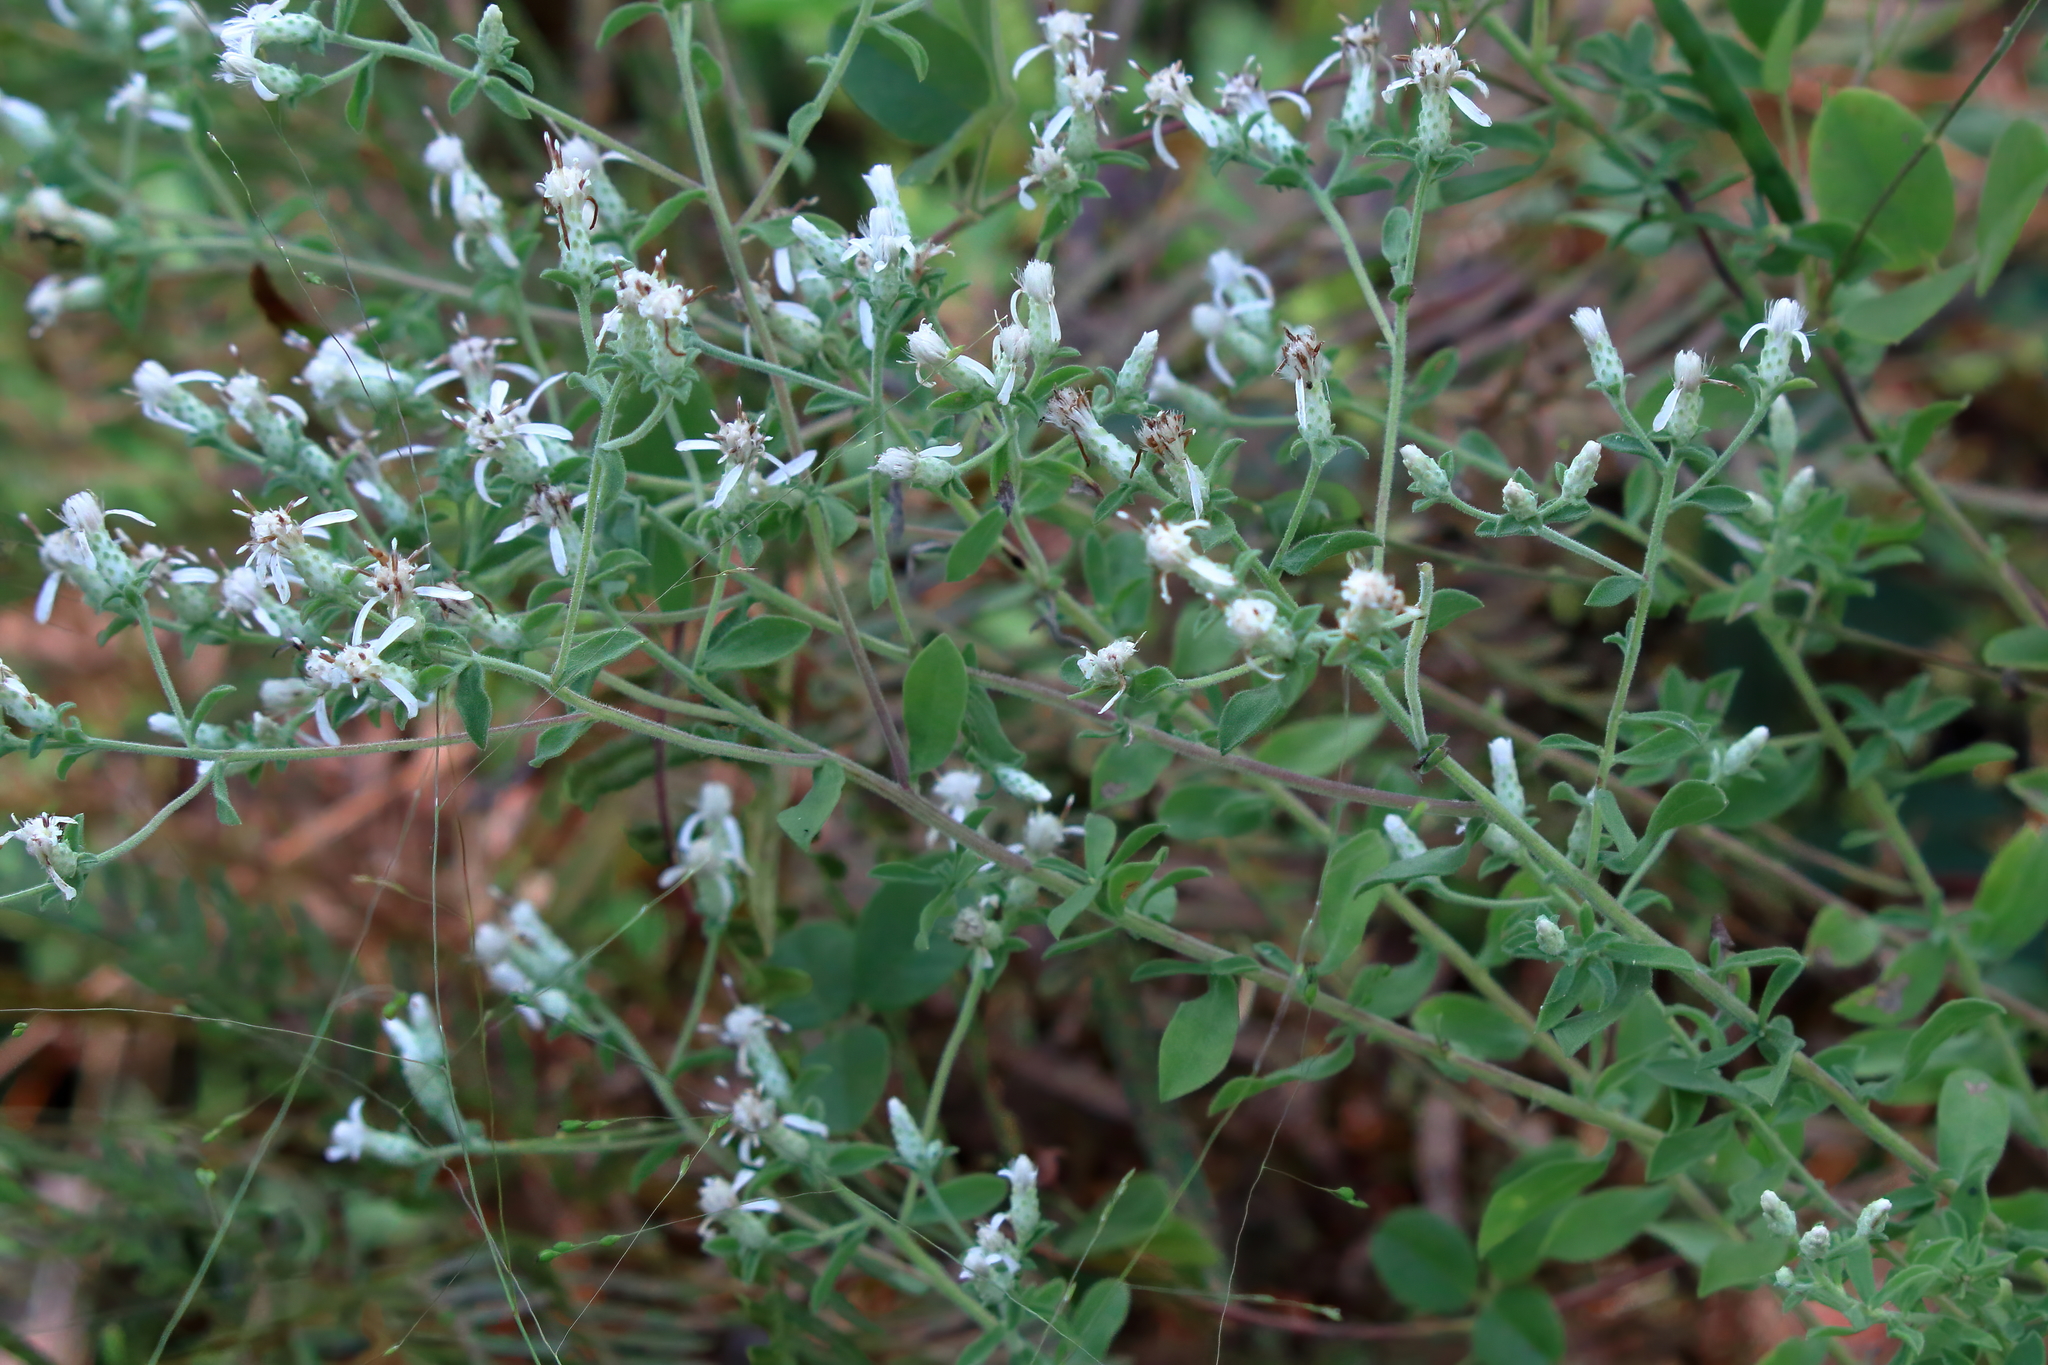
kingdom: Plantae
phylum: Tracheophyta
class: Magnoliopsida
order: Asterales
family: Asteraceae
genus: Sericocarpus
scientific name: Sericocarpus tortifolius
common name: Dixie aster
